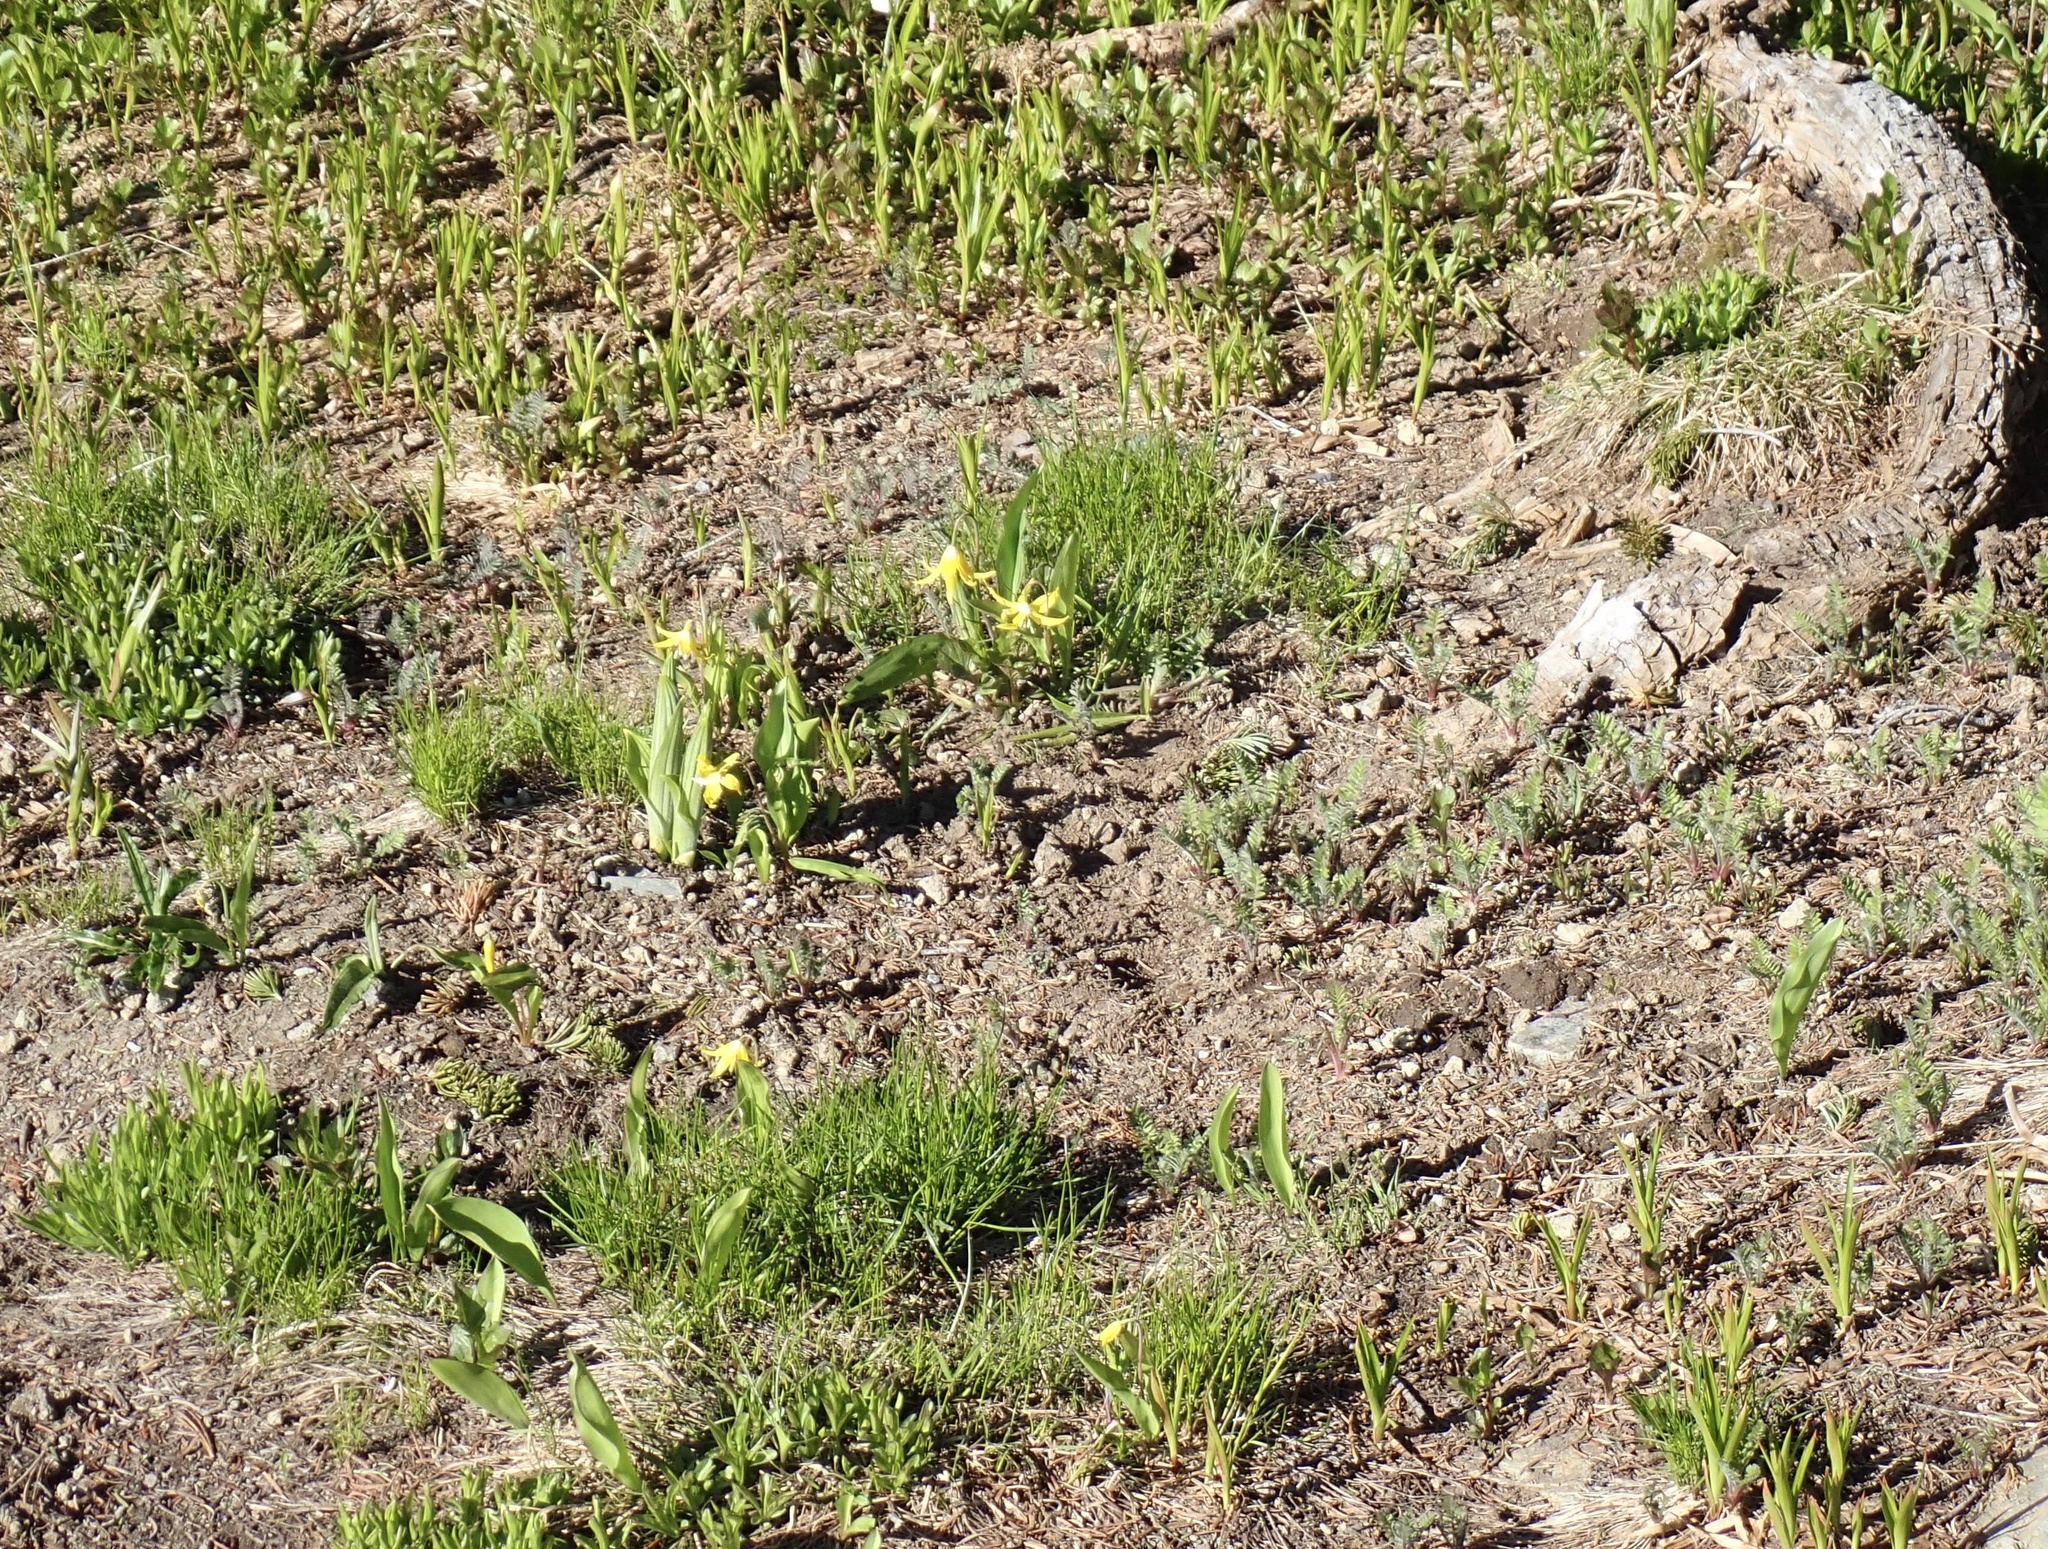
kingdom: Plantae
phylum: Tracheophyta
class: Liliopsida
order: Liliales
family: Liliaceae
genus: Erythronium
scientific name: Erythronium grandiflorum
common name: Avalanche-lily
